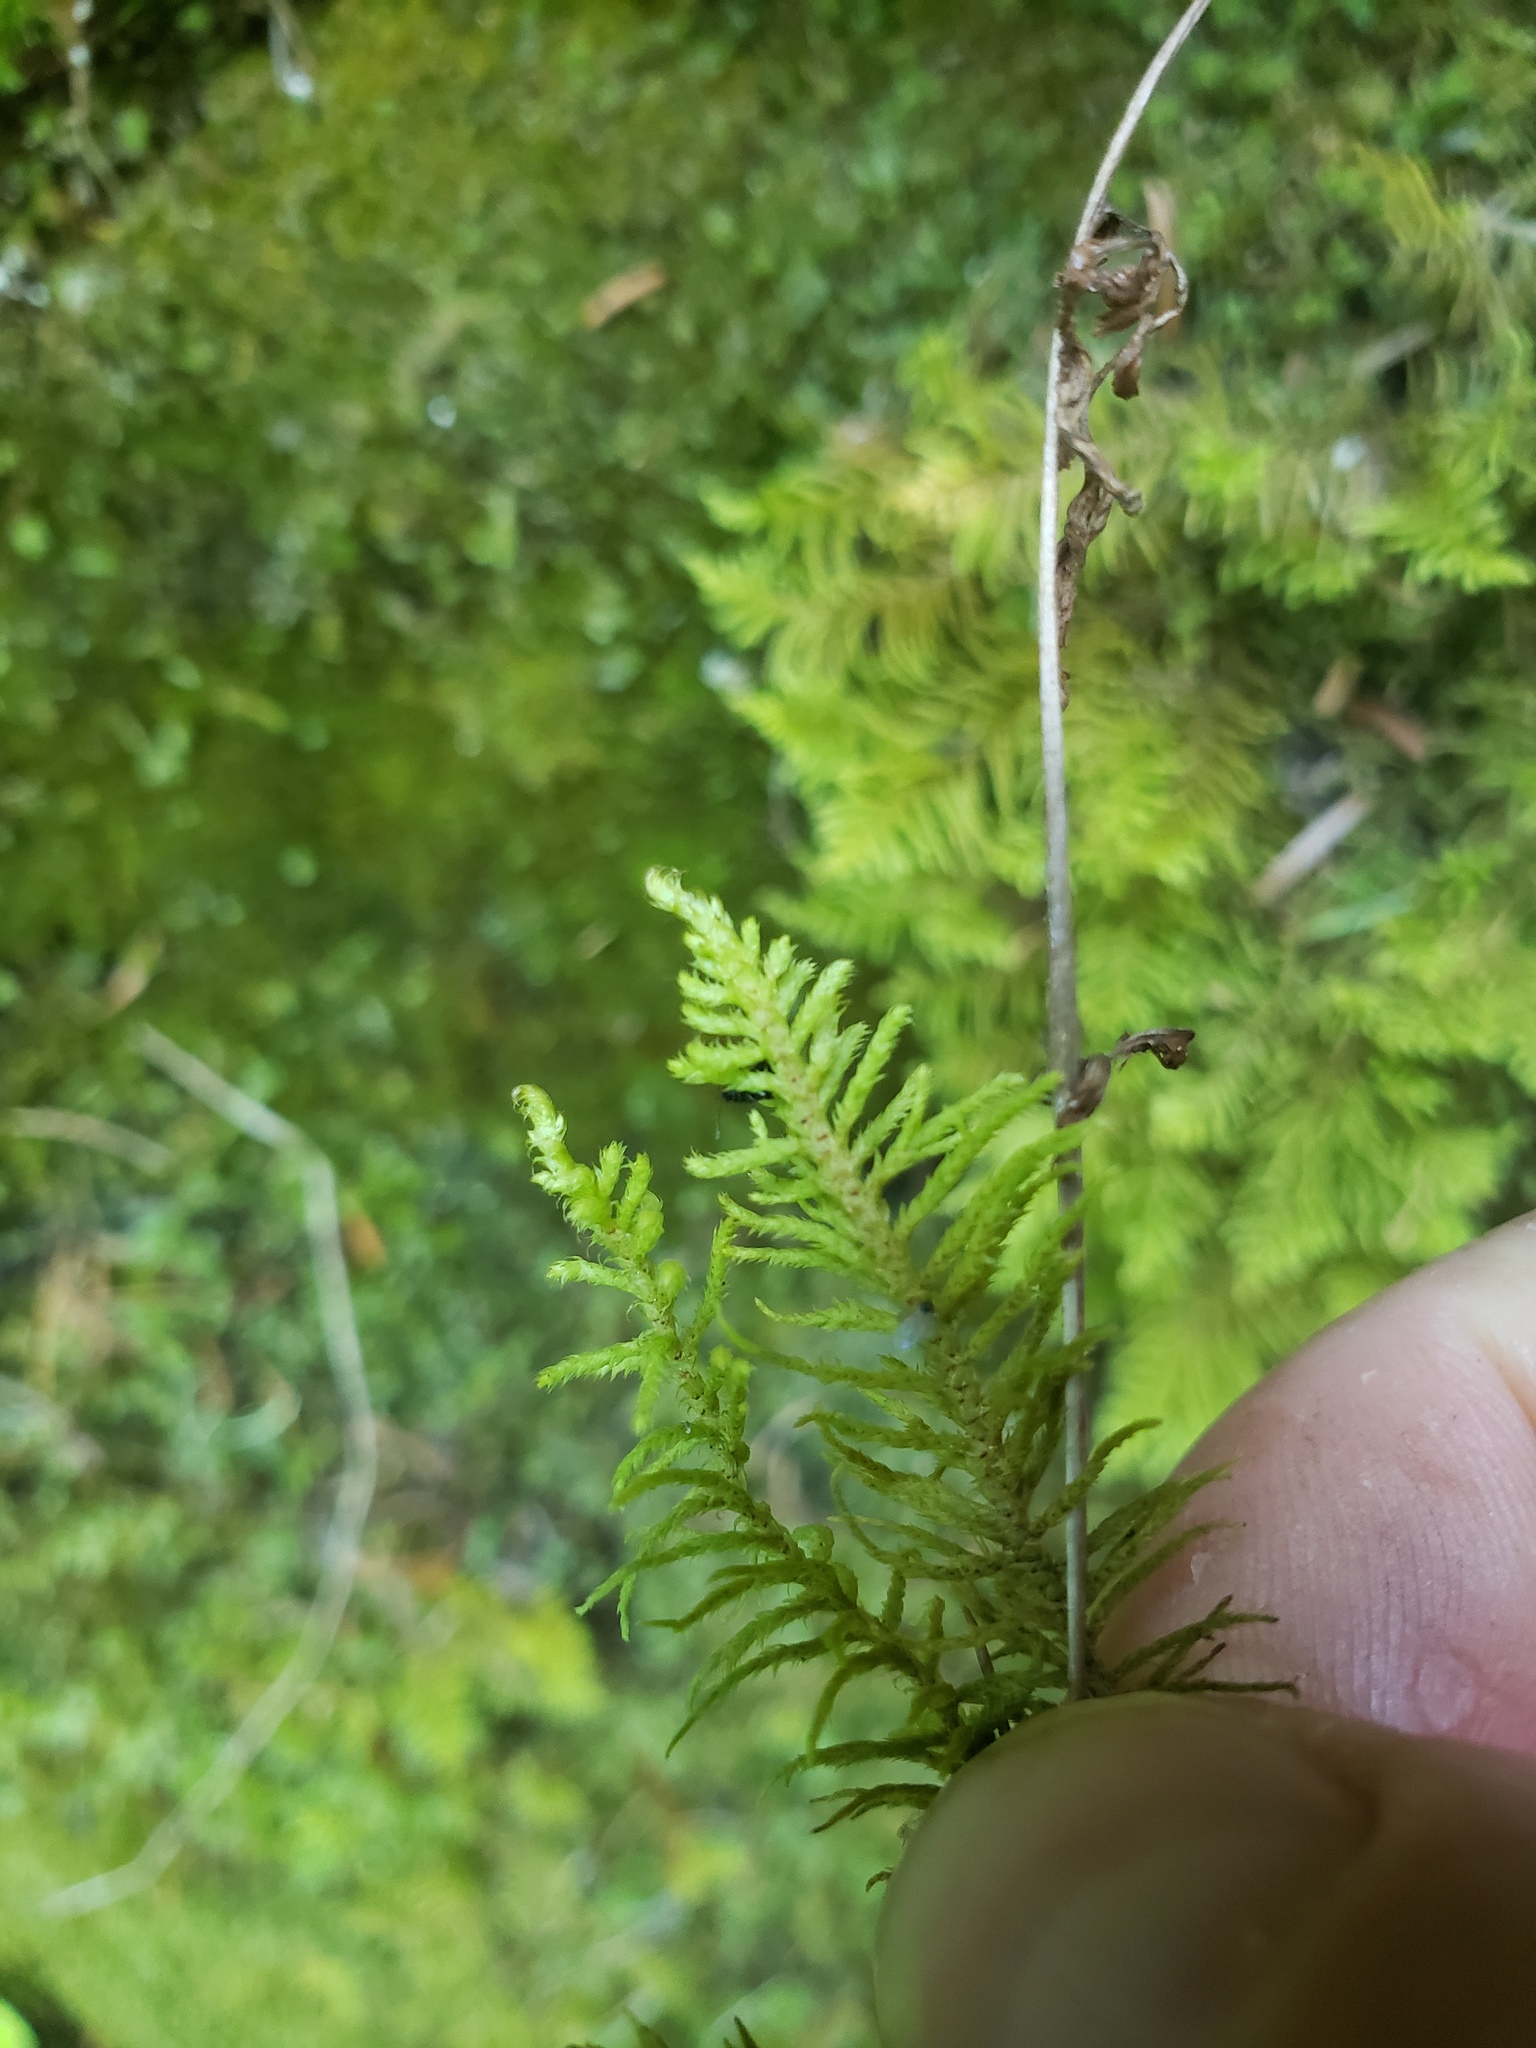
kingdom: Plantae
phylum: Bryophyta
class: Bryopsida
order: Hypnales
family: Thuidiaceae
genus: Abietinella
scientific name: Abietinella abietina
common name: Wiry fern moss
